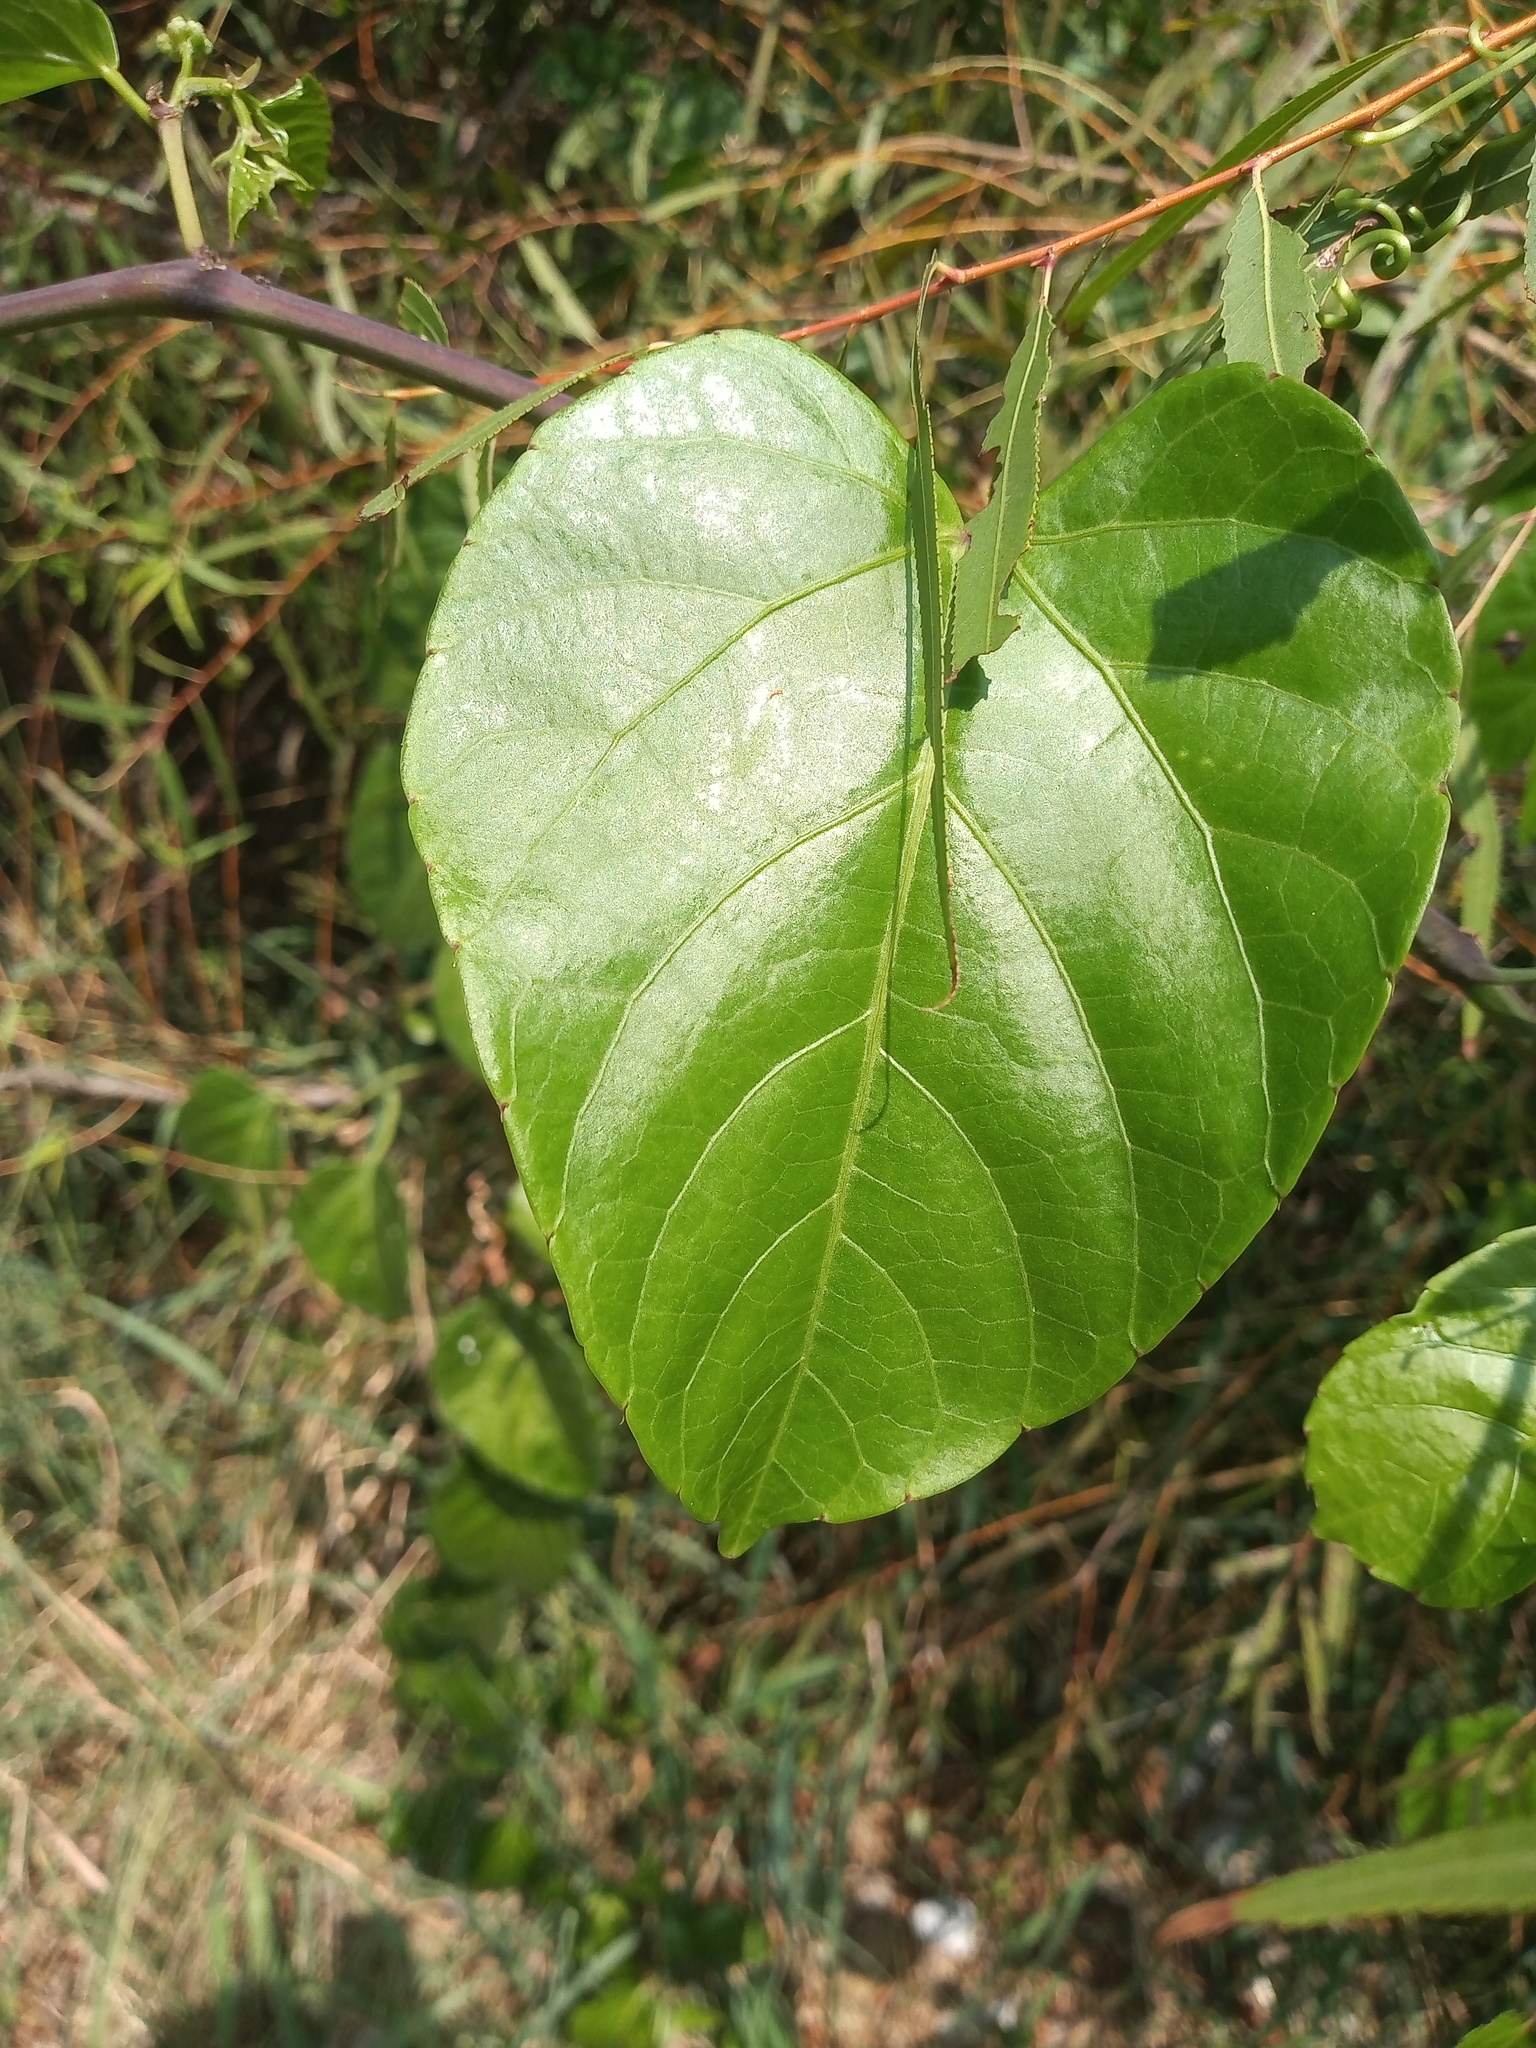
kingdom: Plantae
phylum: Tracheophyta
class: Magnoliopsida
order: Vitales
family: Vitaceae
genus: Cissus
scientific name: Cissus verticillata
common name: Princess vine
